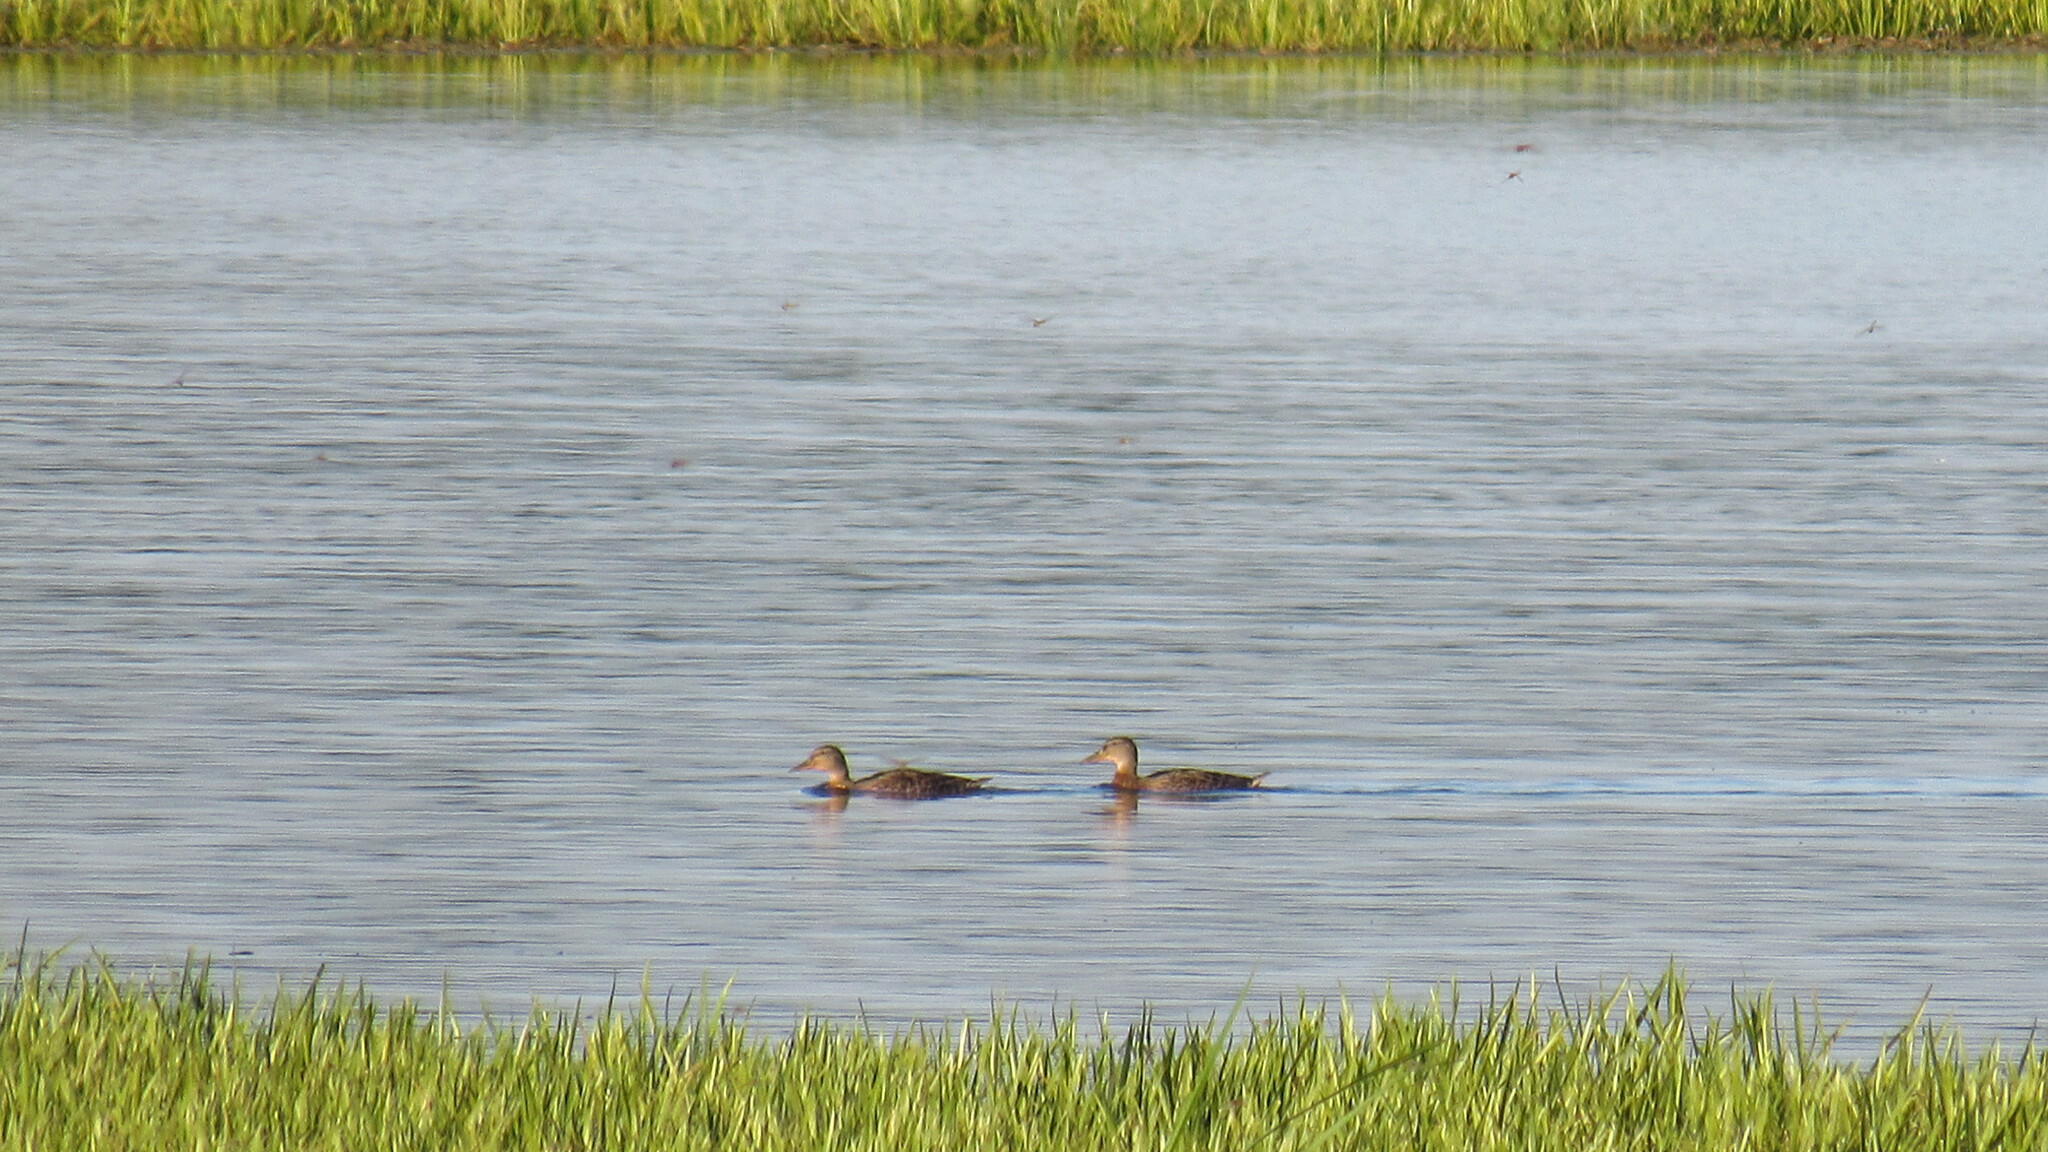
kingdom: Animalia
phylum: Chordata
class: Aves
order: Anseriformes
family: Anatidae
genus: Anas
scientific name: Anas platyrhynchos
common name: Mallard
